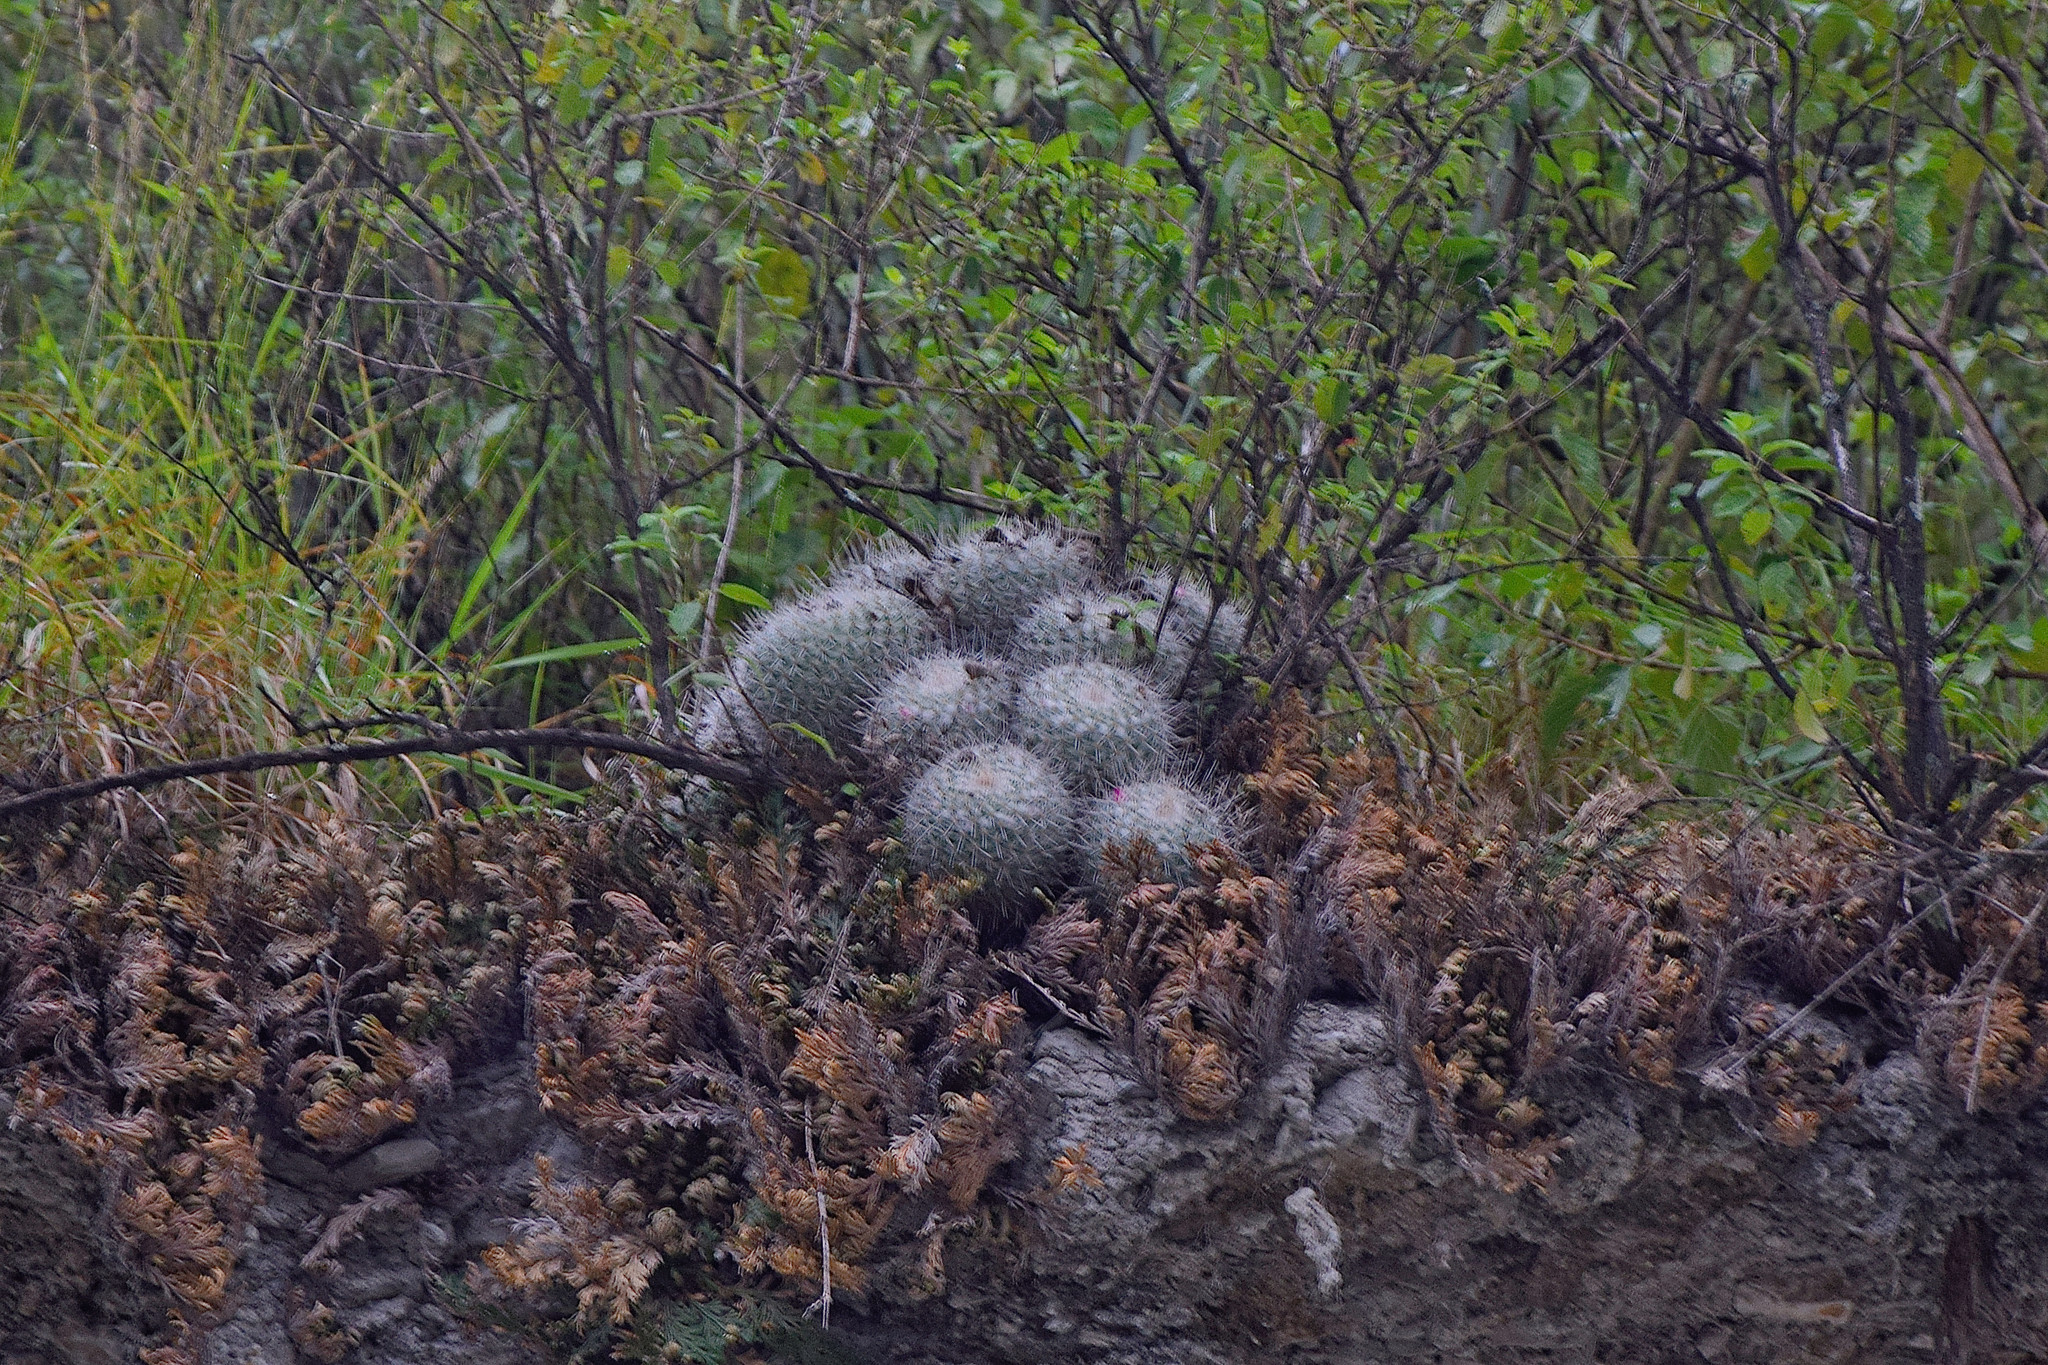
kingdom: Plantae
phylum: Tracheophyta
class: Magnoliopsida
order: Caryophyllales
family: Cactaceae
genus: Mammillaria
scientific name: Mammillaria geminispina
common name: Whitey
